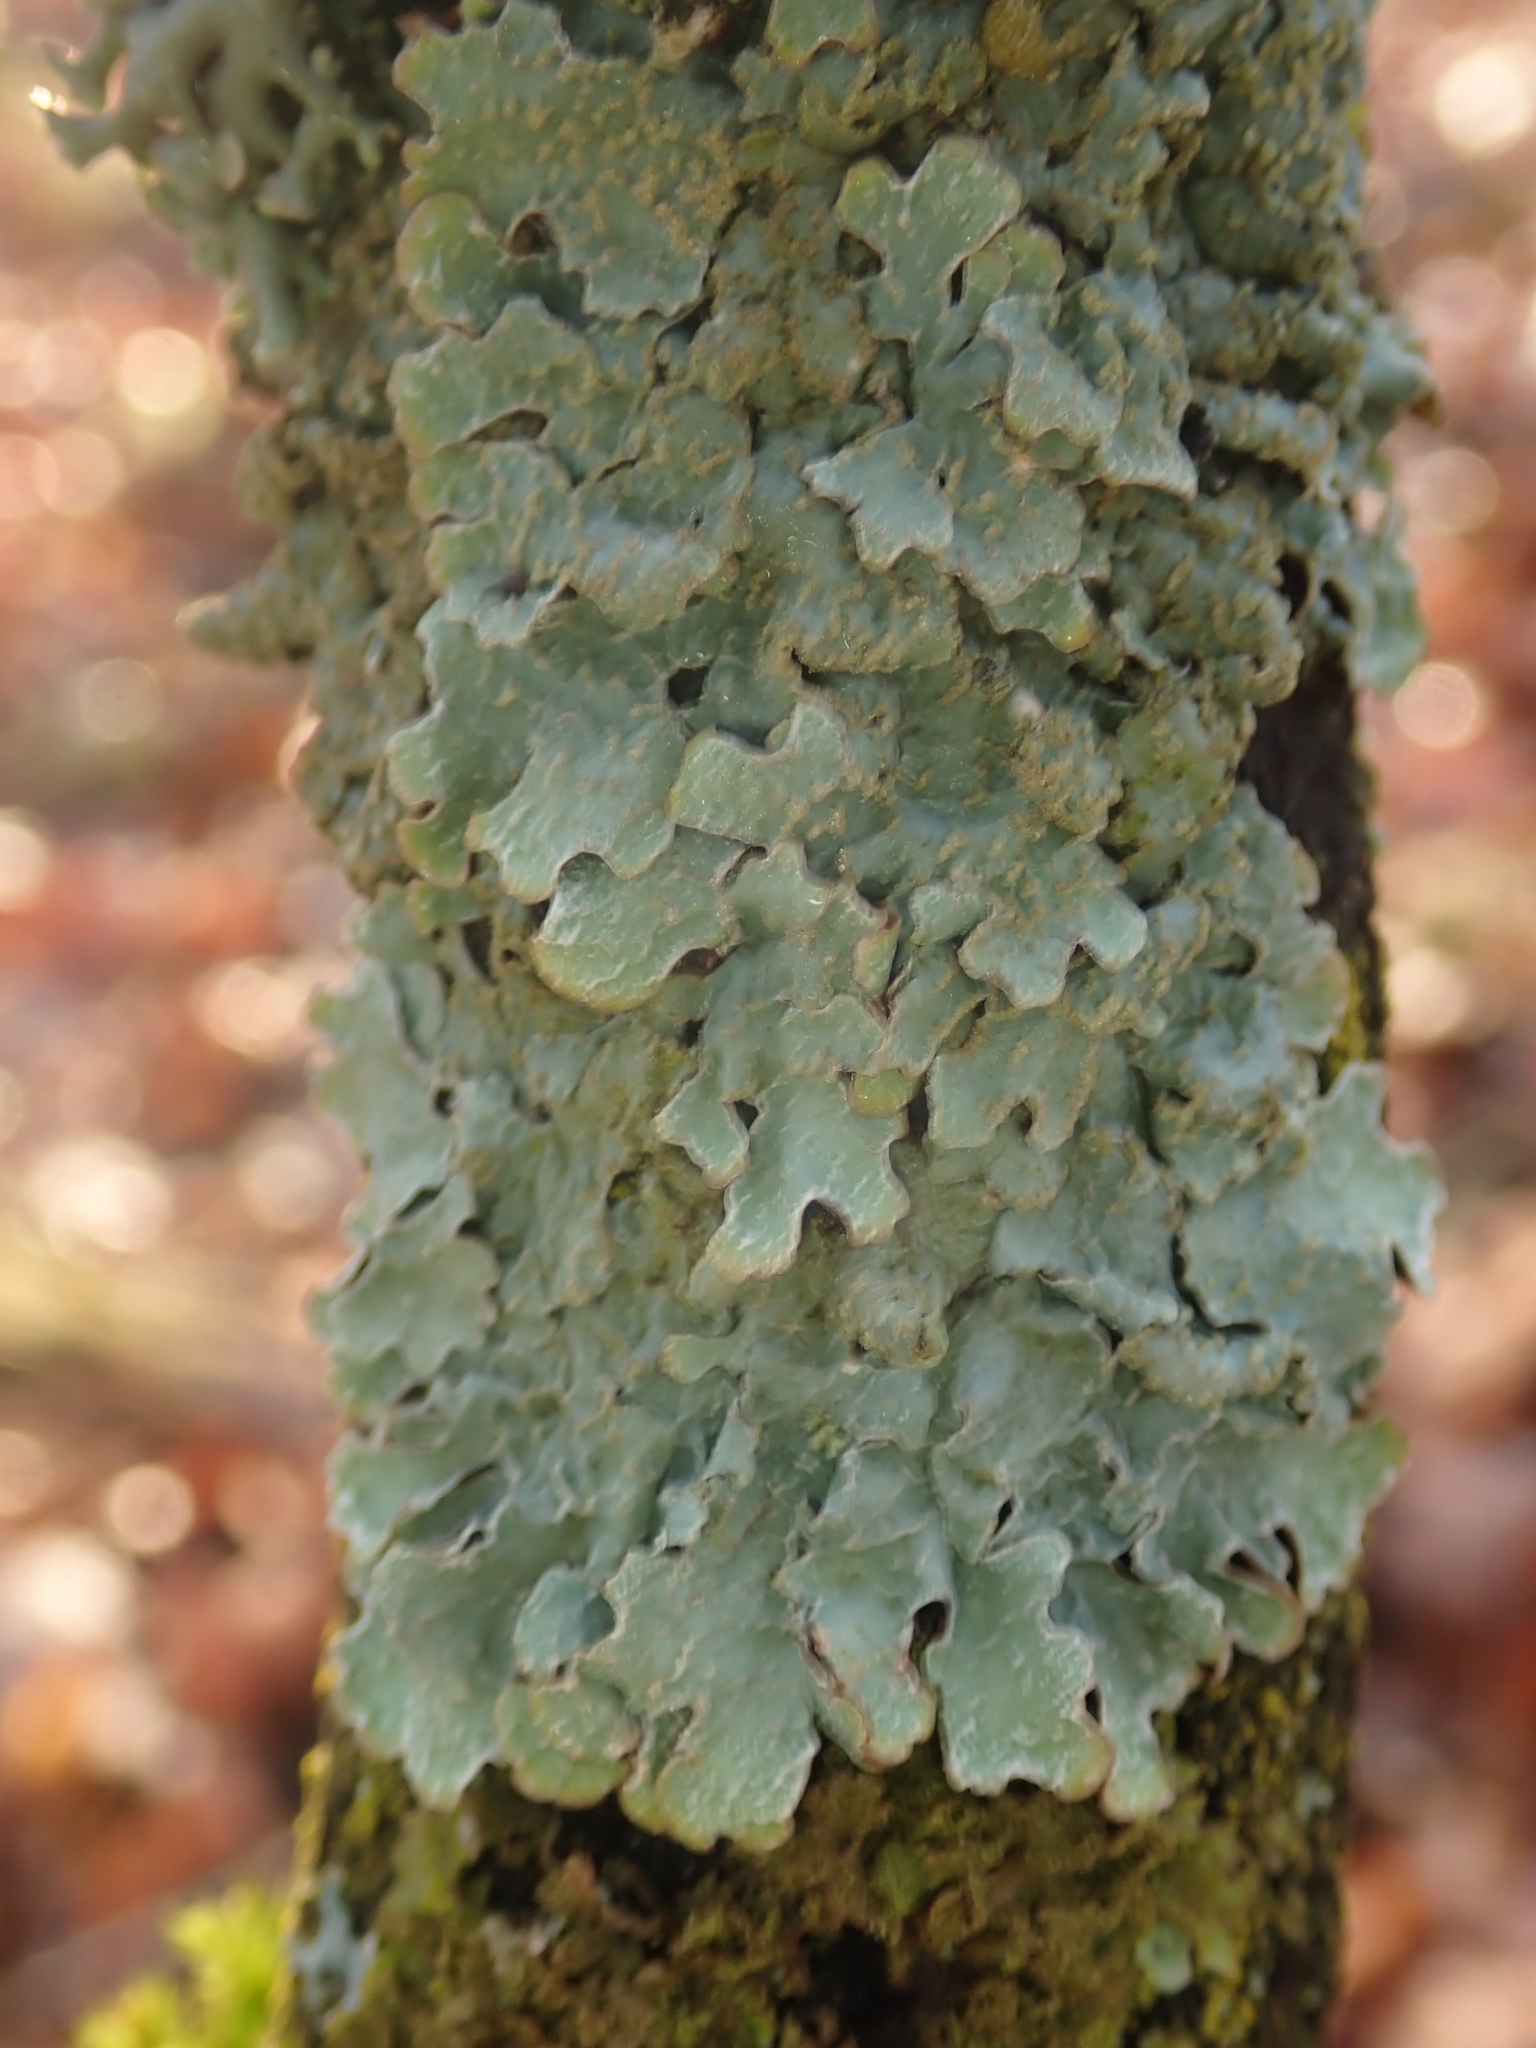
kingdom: Fungi
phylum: Ascomycota
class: Lecanoromycetes
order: Lecanorales
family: Parmeliaceae
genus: Parmelia
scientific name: Parmelia sulcata
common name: Netted shield lichen
